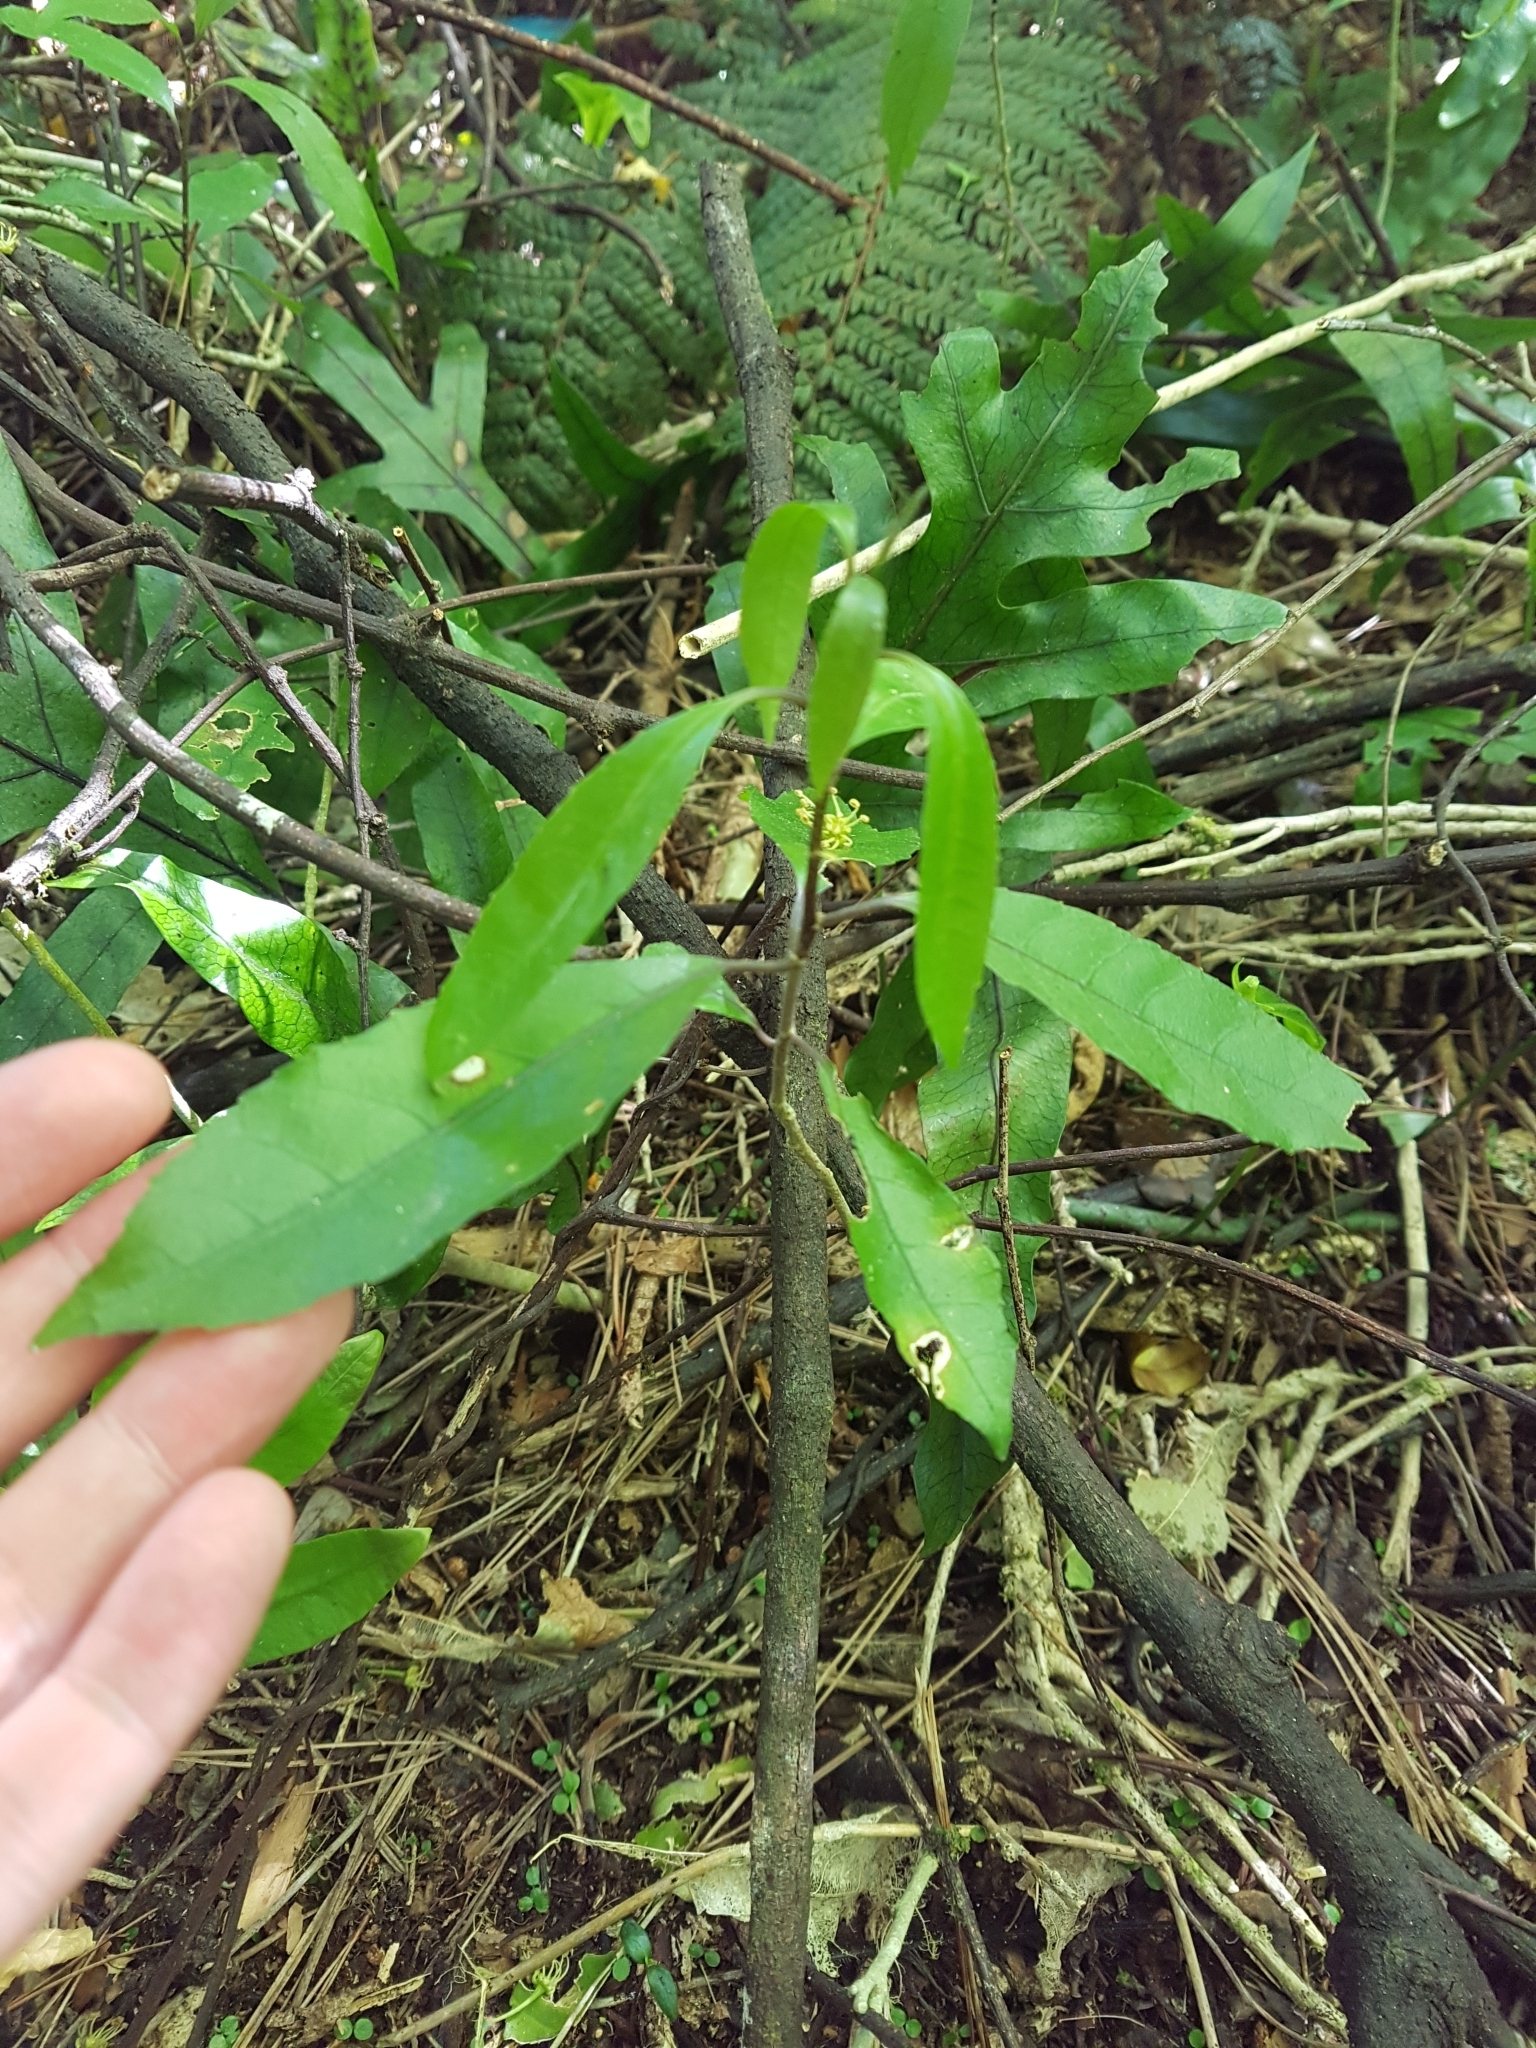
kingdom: Plantae
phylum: Tracheophyta
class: Magnoliopsida
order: Malpighiales
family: Violaceae
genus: Melicytus
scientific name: Melicytus ramiflorus
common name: Mahoe
